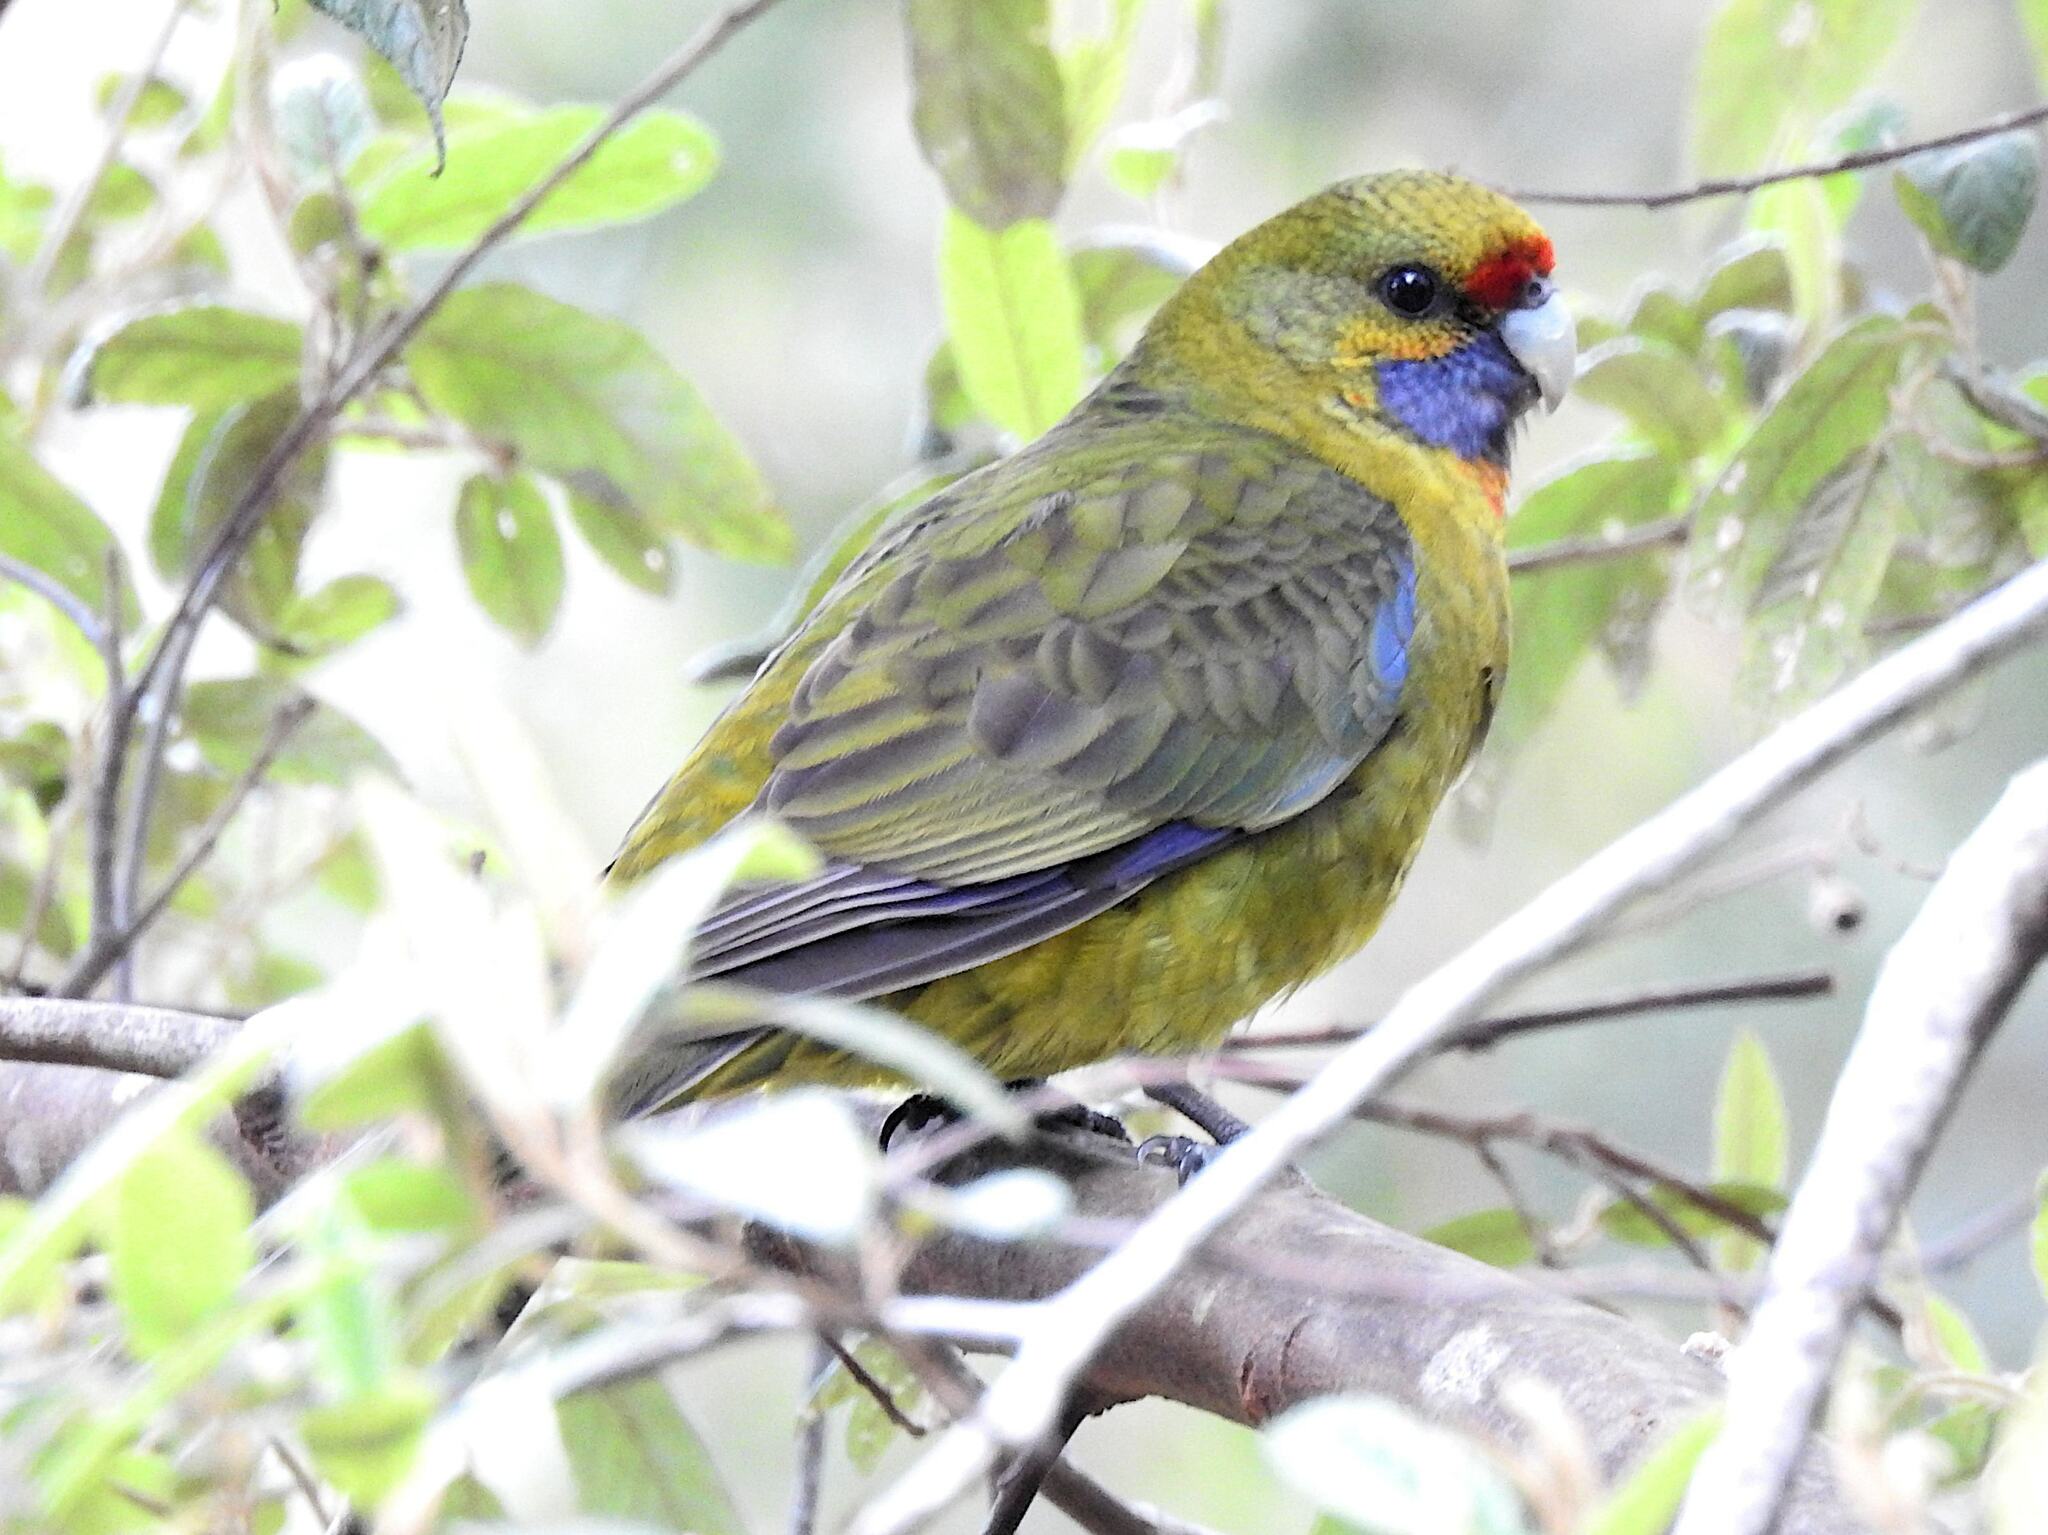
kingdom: Animalia
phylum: Chordata
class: Aves
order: Psittaciformes
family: Psittacidae
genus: Platycercus
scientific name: Platycercus caledonicus
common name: Green rosella
